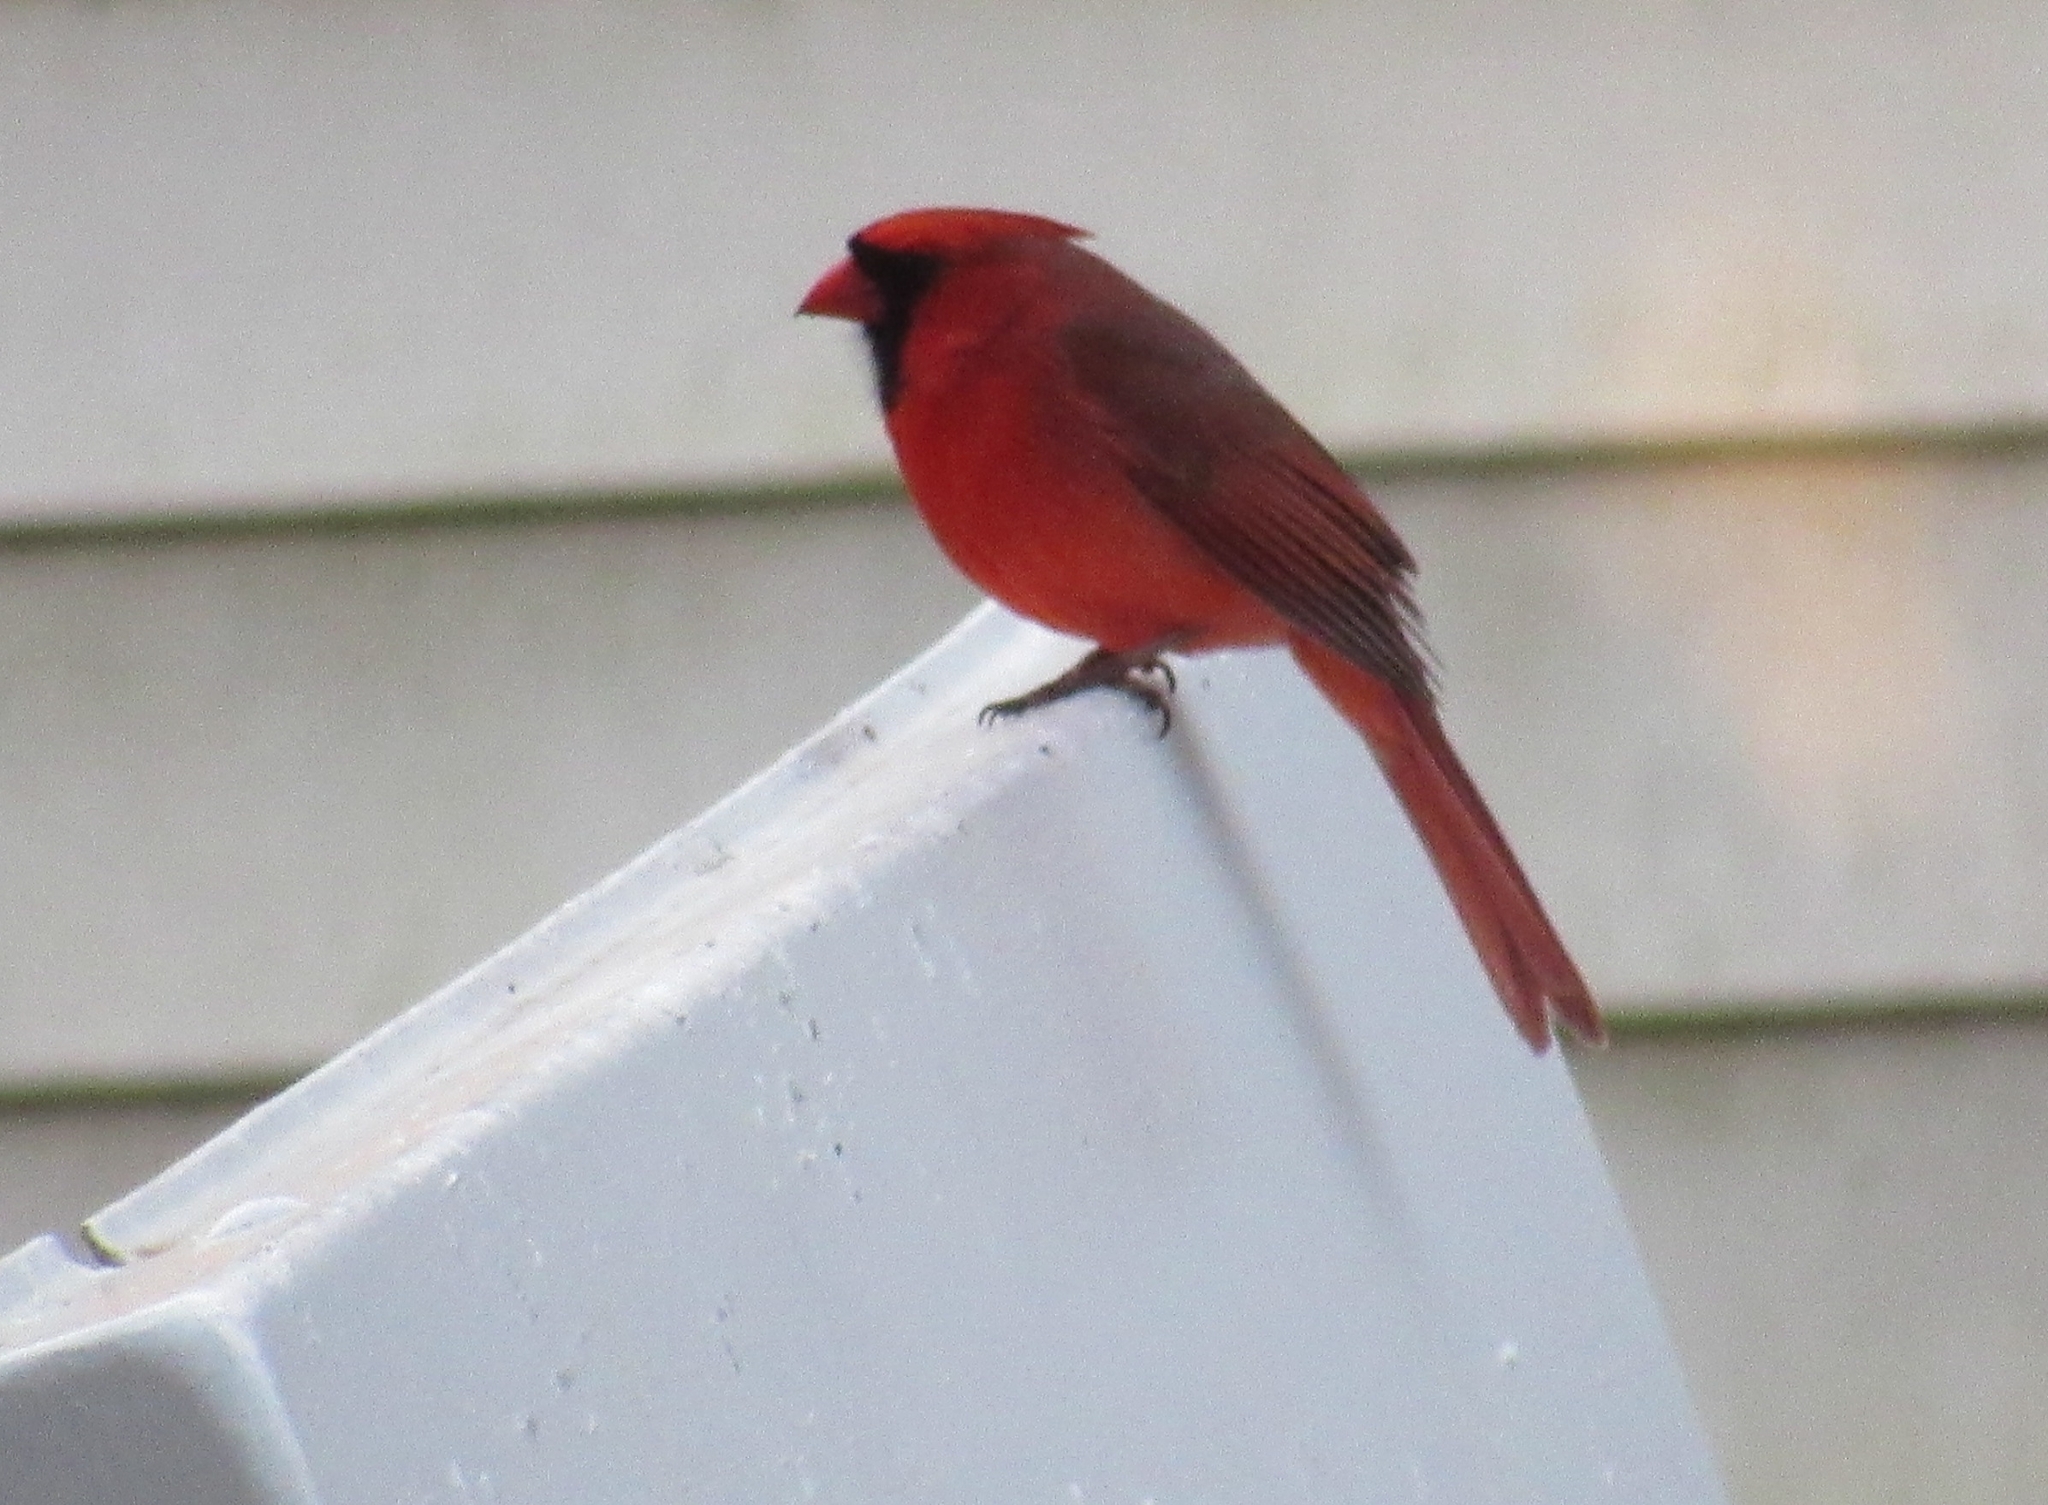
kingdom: Animalia
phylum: Chordata
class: Aves
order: Passeriformes
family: Cardinalidae
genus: Cardinalis
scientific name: Cardinalis cardinalis
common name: Northern cardinal
